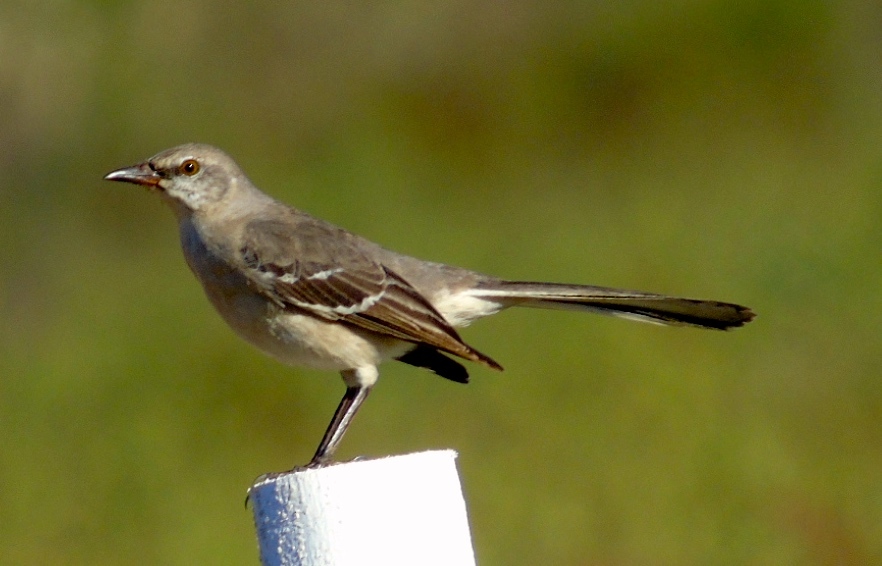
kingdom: Animalia
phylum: Chordata
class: Aves
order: Passeriformes
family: Mimidae
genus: Mimus
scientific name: Mimus polyglottos
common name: Northern mockingbird
